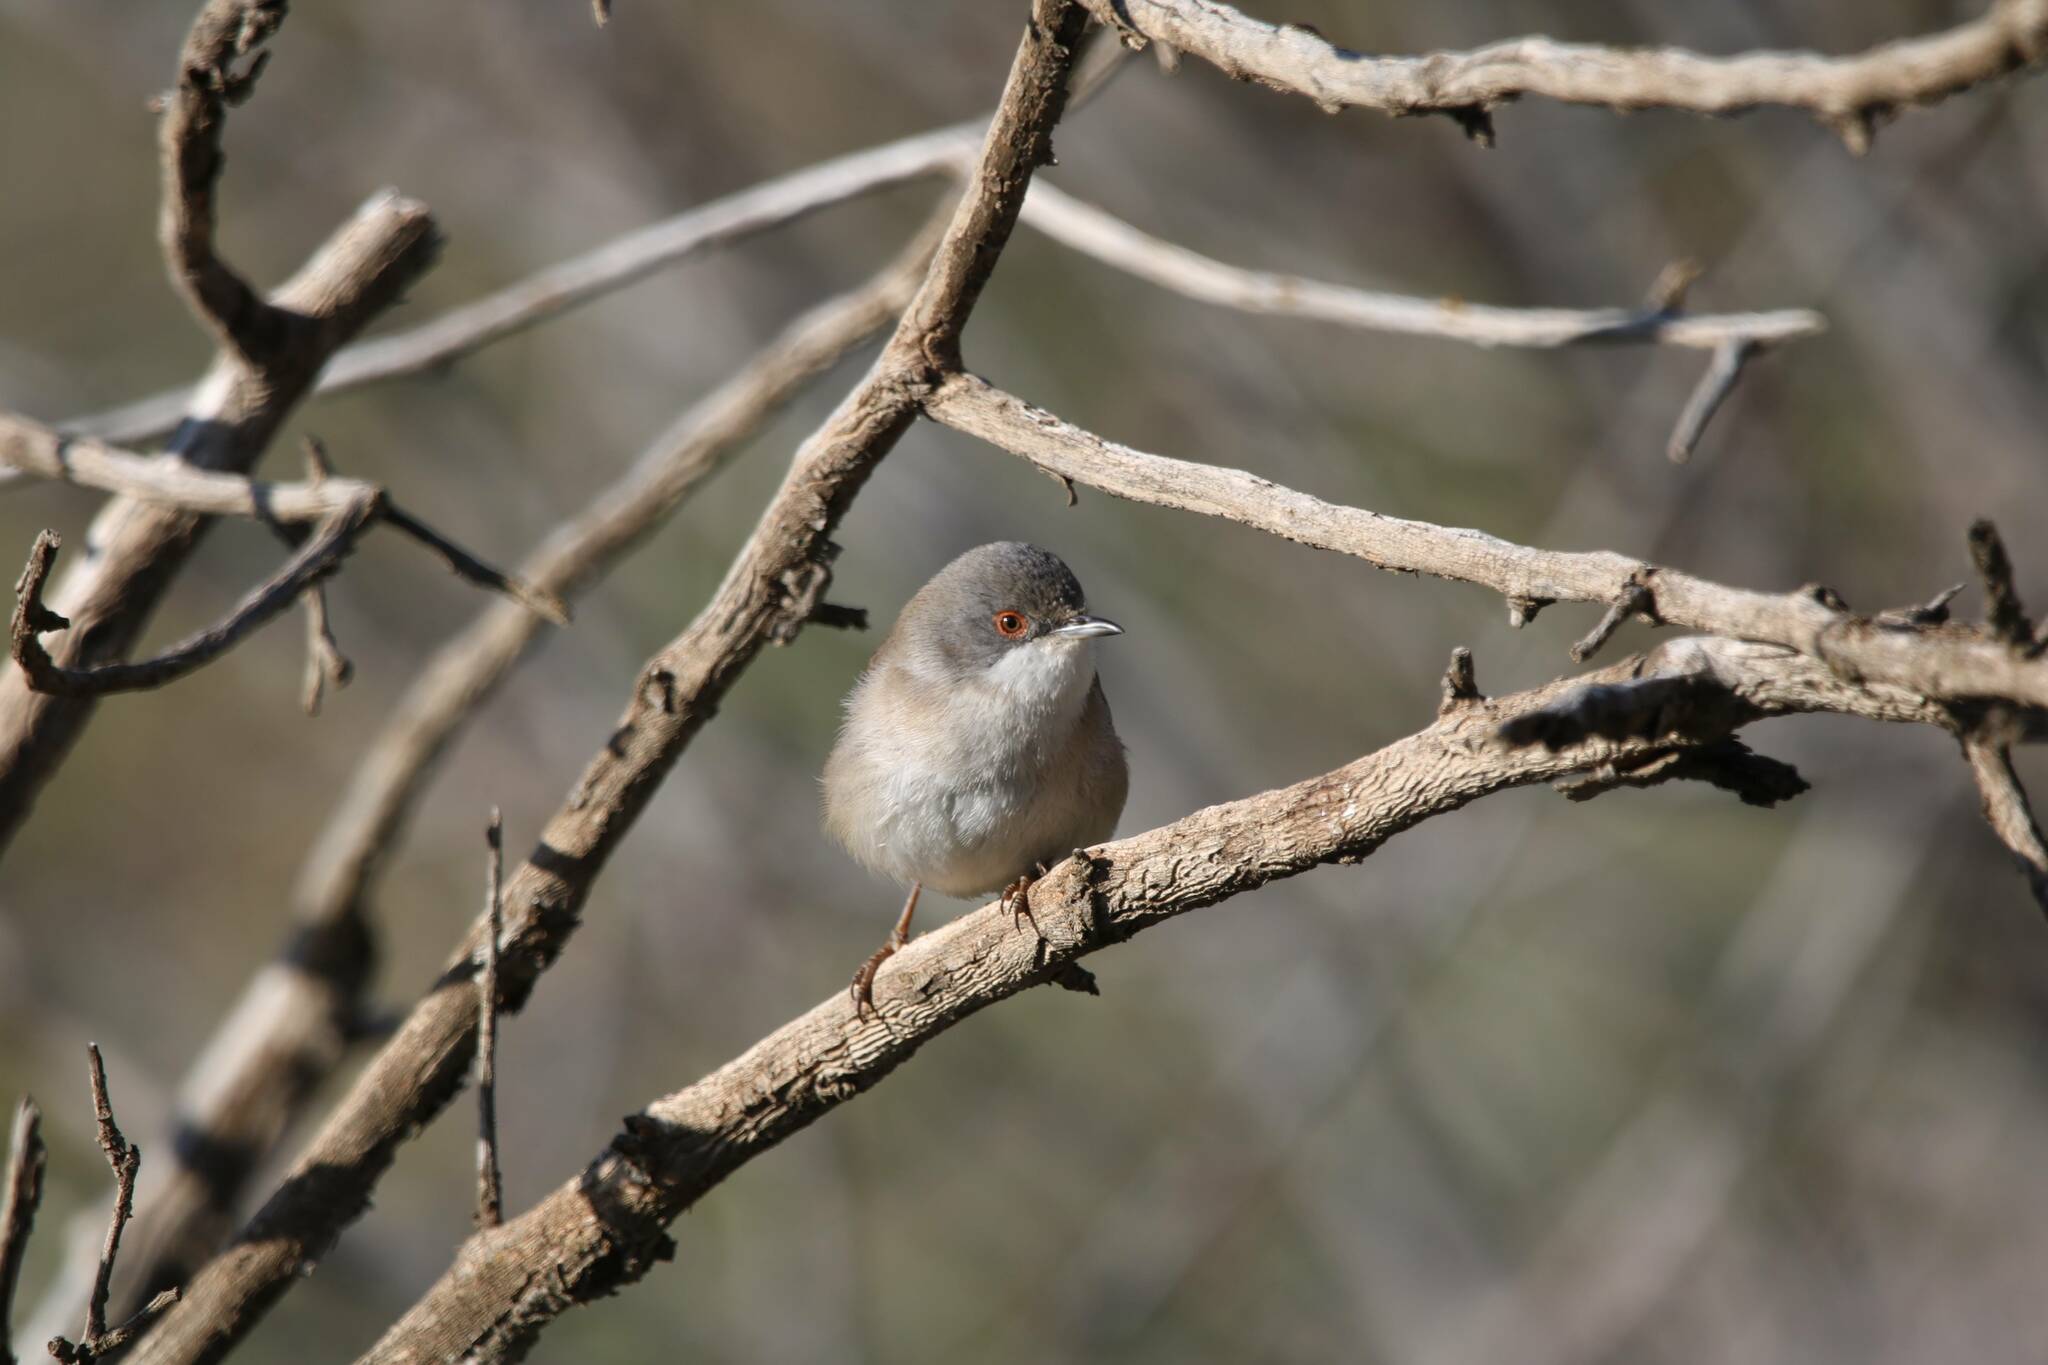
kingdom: Animalia
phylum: Chordata
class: Aves
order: Passeriformes
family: Sylviidae
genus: Curruca
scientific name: Curruca melanocephala
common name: Sardinian warbler
